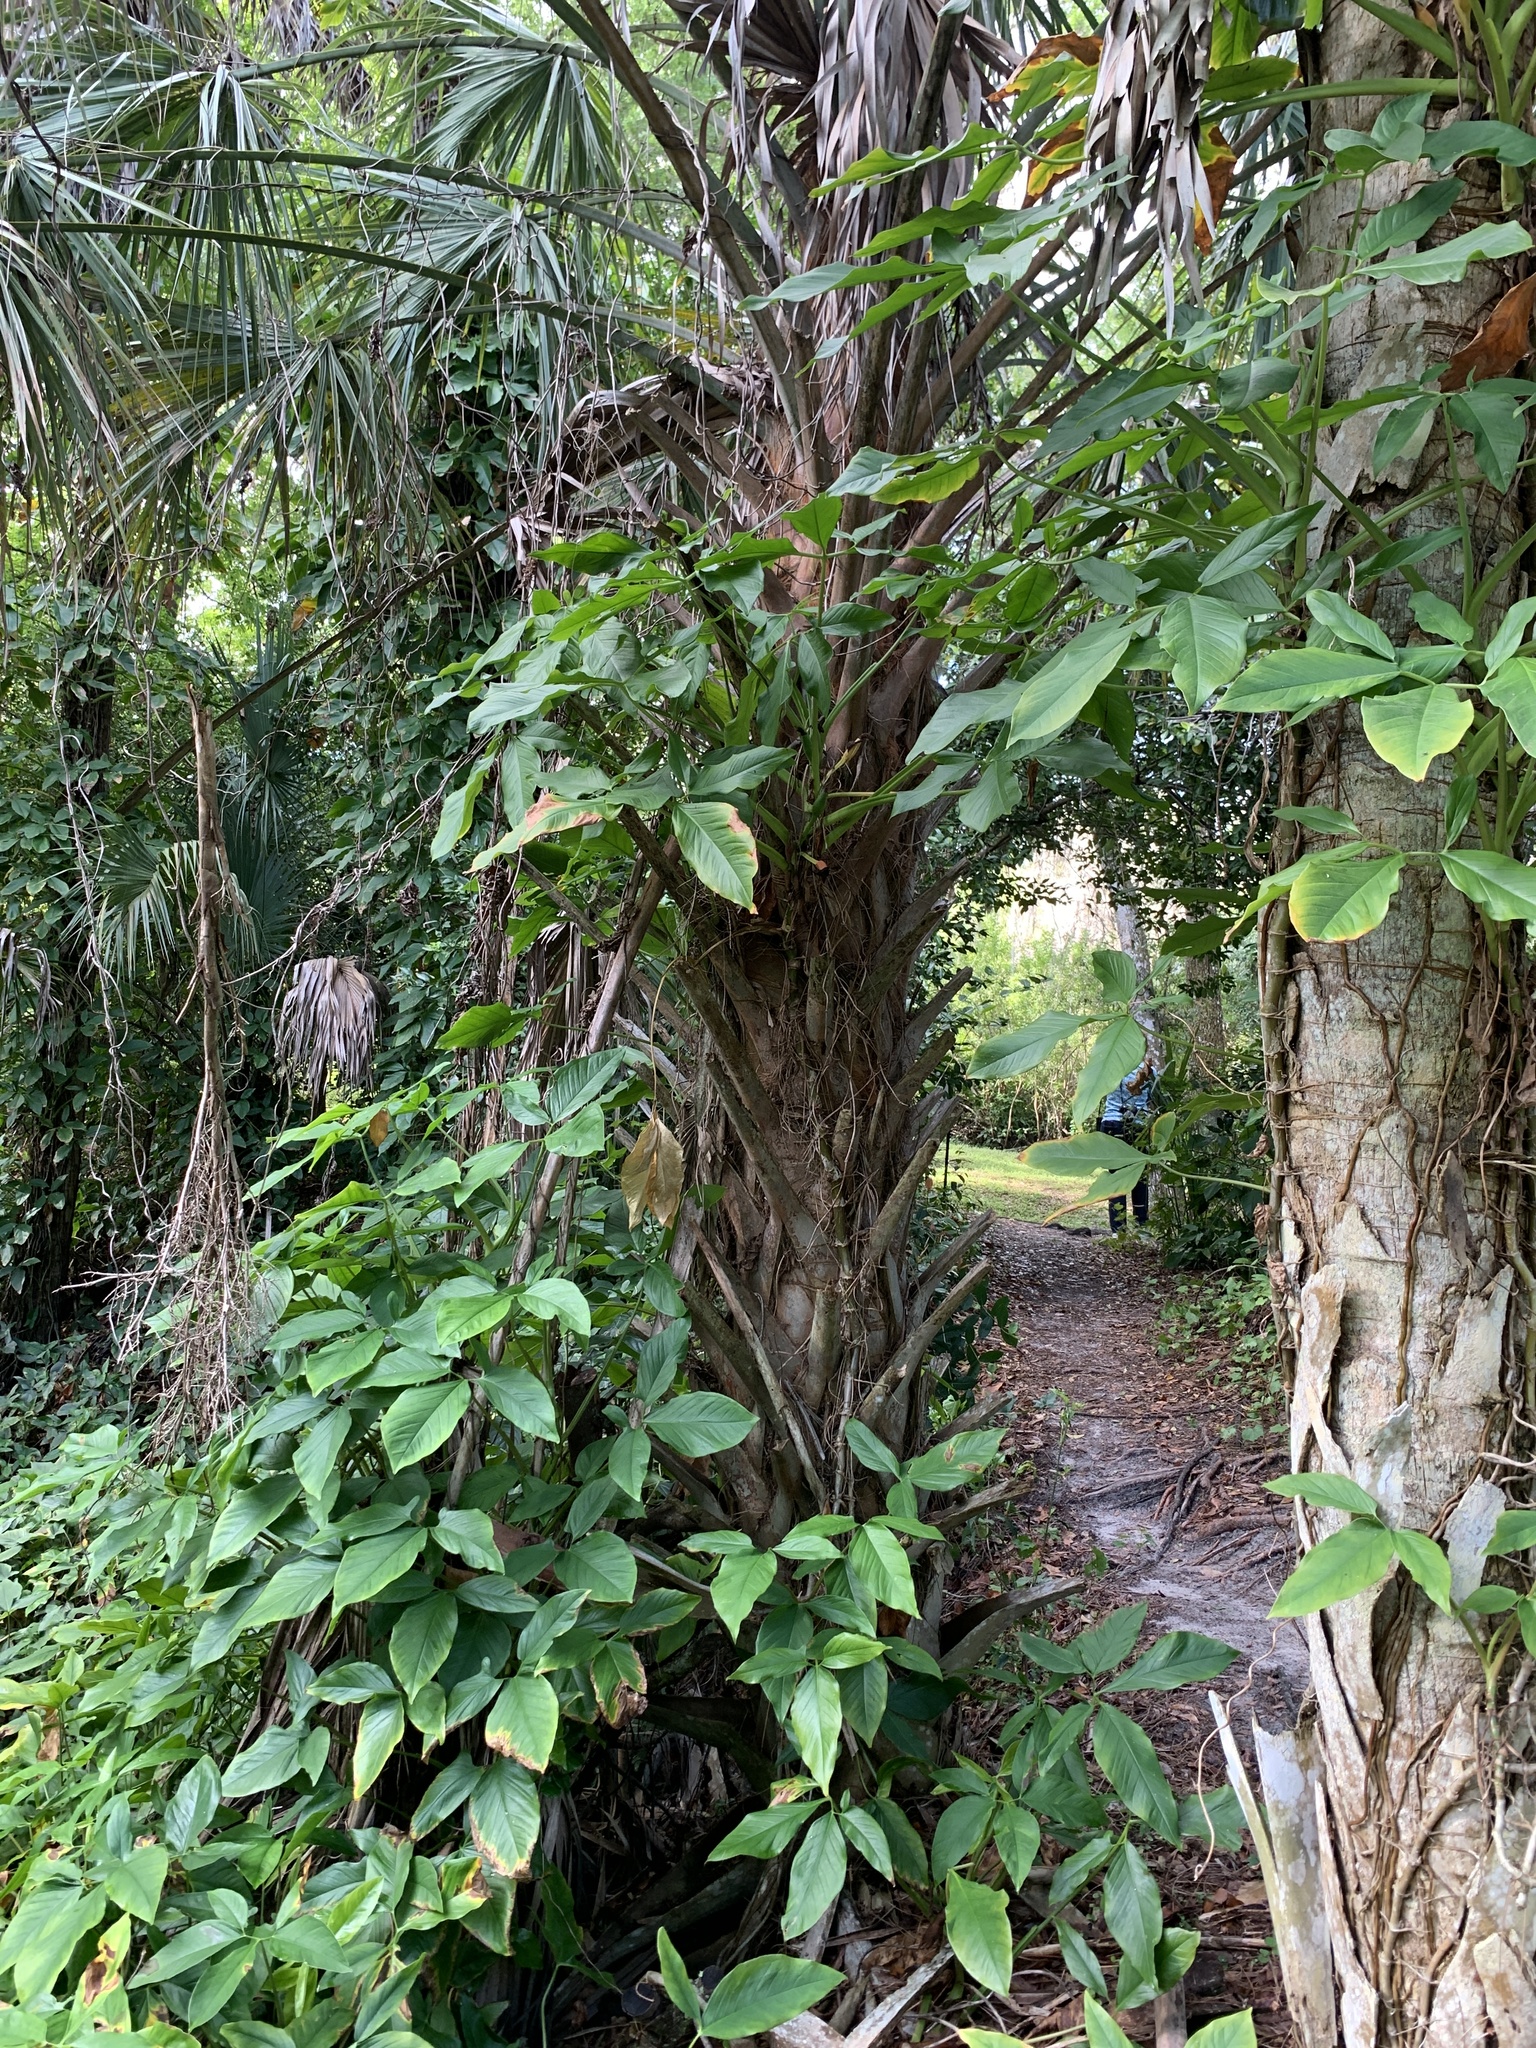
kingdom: Plantae
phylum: Tracheophyta
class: Liliopsida
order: Alismatales
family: Araceae
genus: Syngonium
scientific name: Syngonium podophyllum
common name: American evergreen
